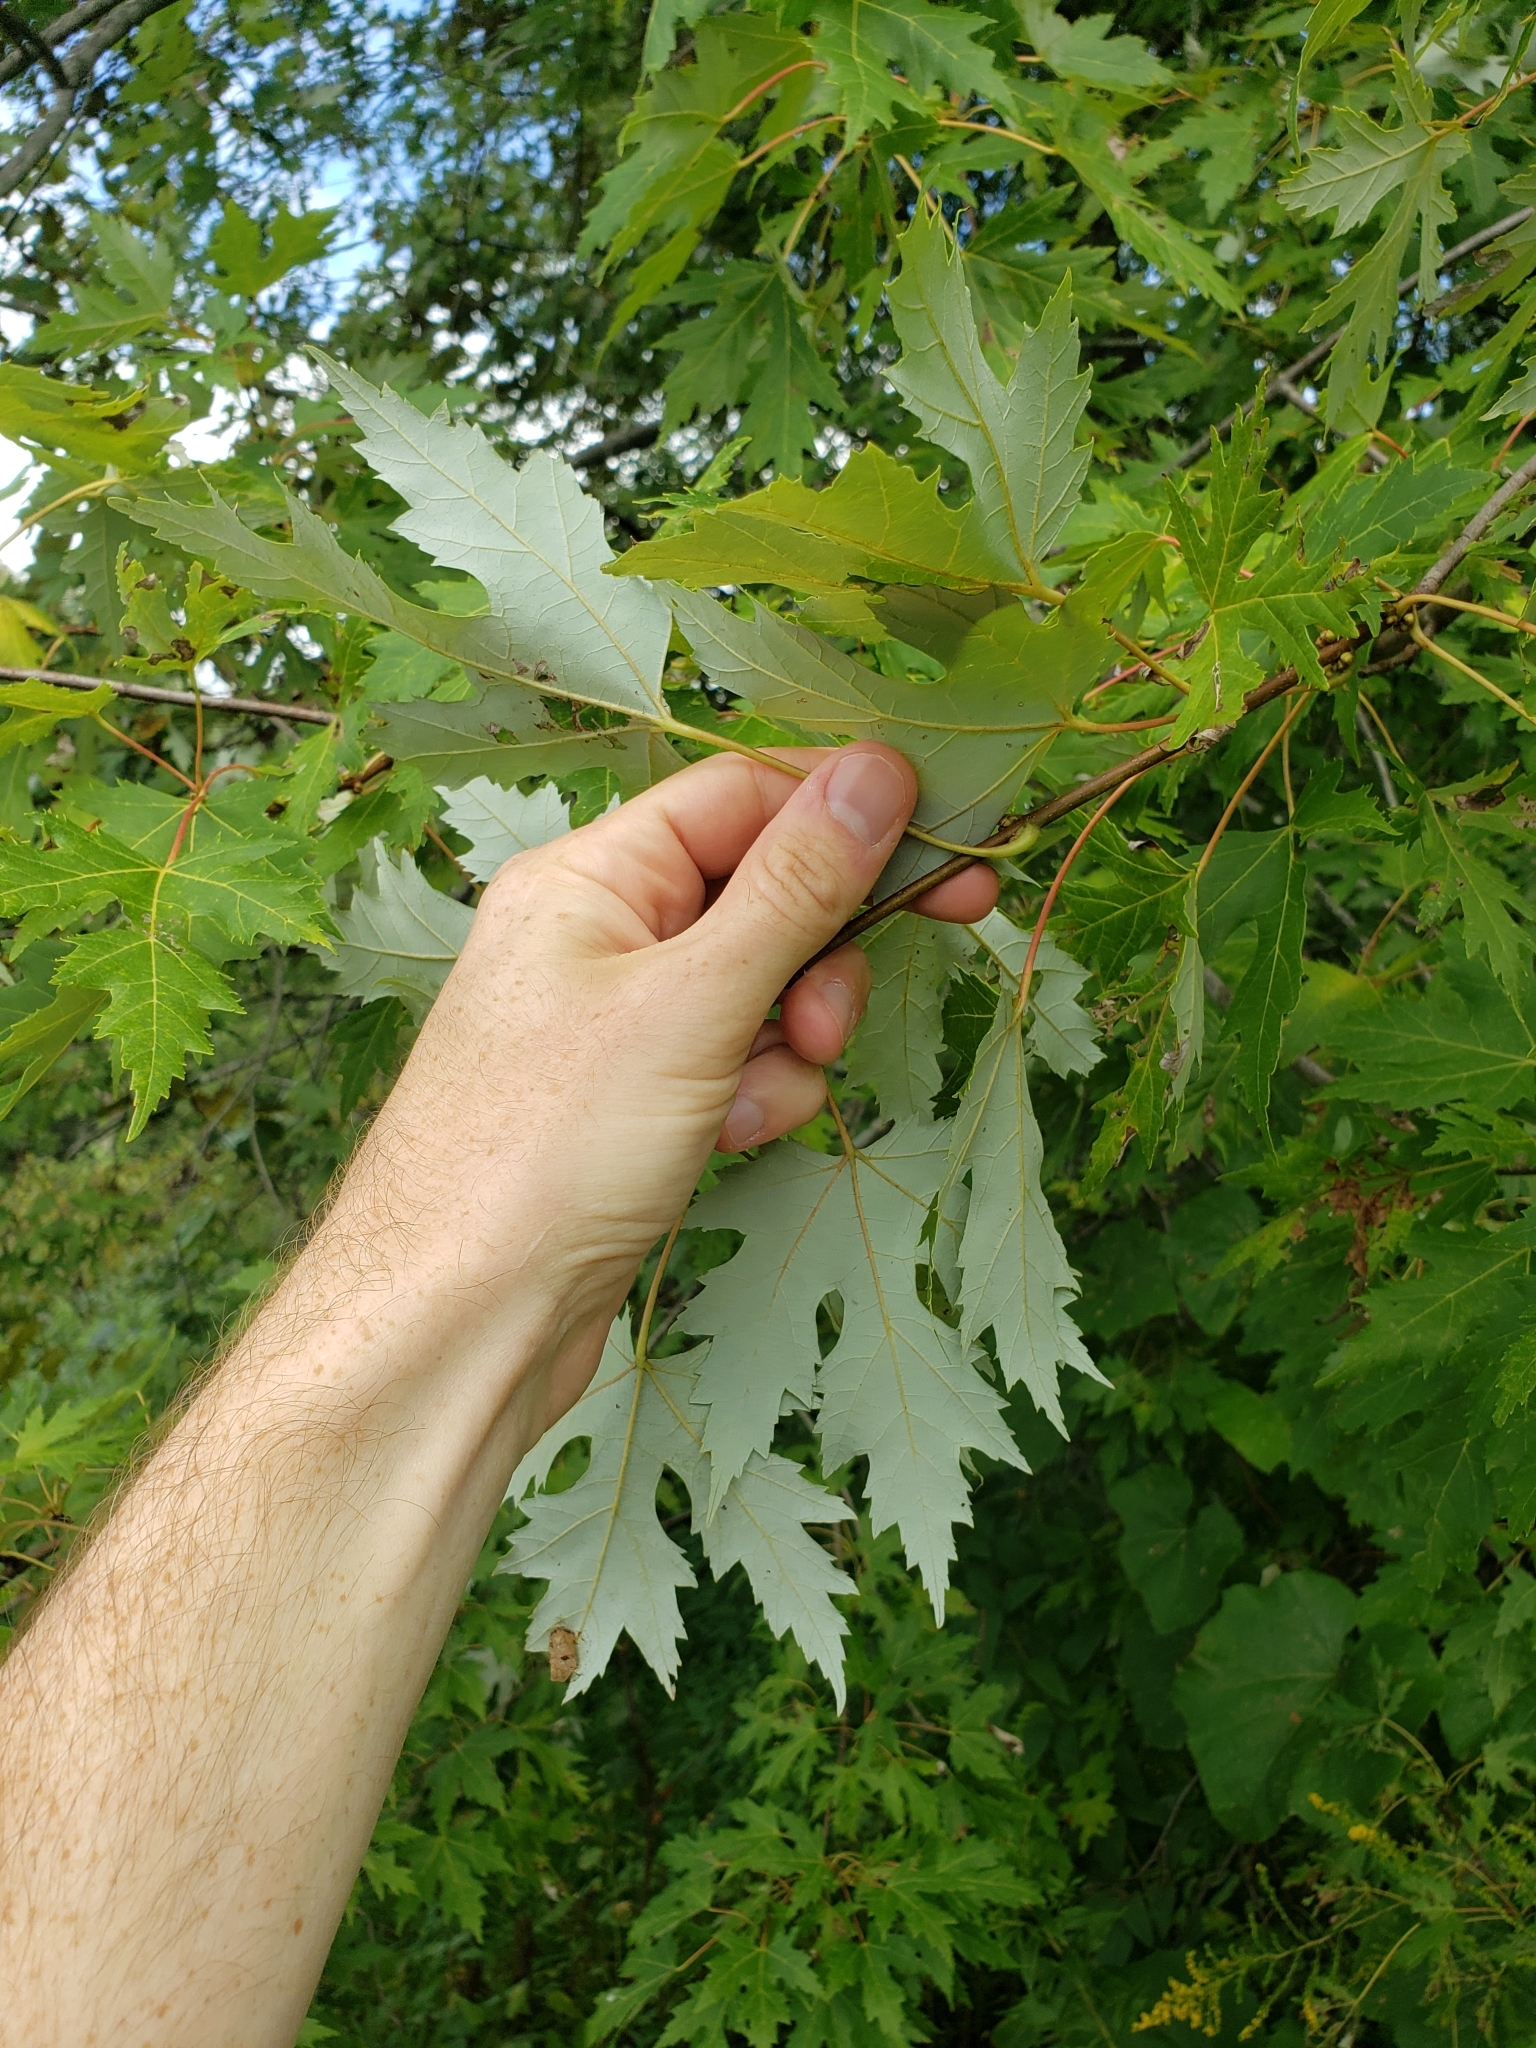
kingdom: Plantae
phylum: Tracheophyta
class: Magnoliopsida
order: Sapindales
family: Sapindaceae
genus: Acer
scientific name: Acer saccharinum
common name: Silver maple
